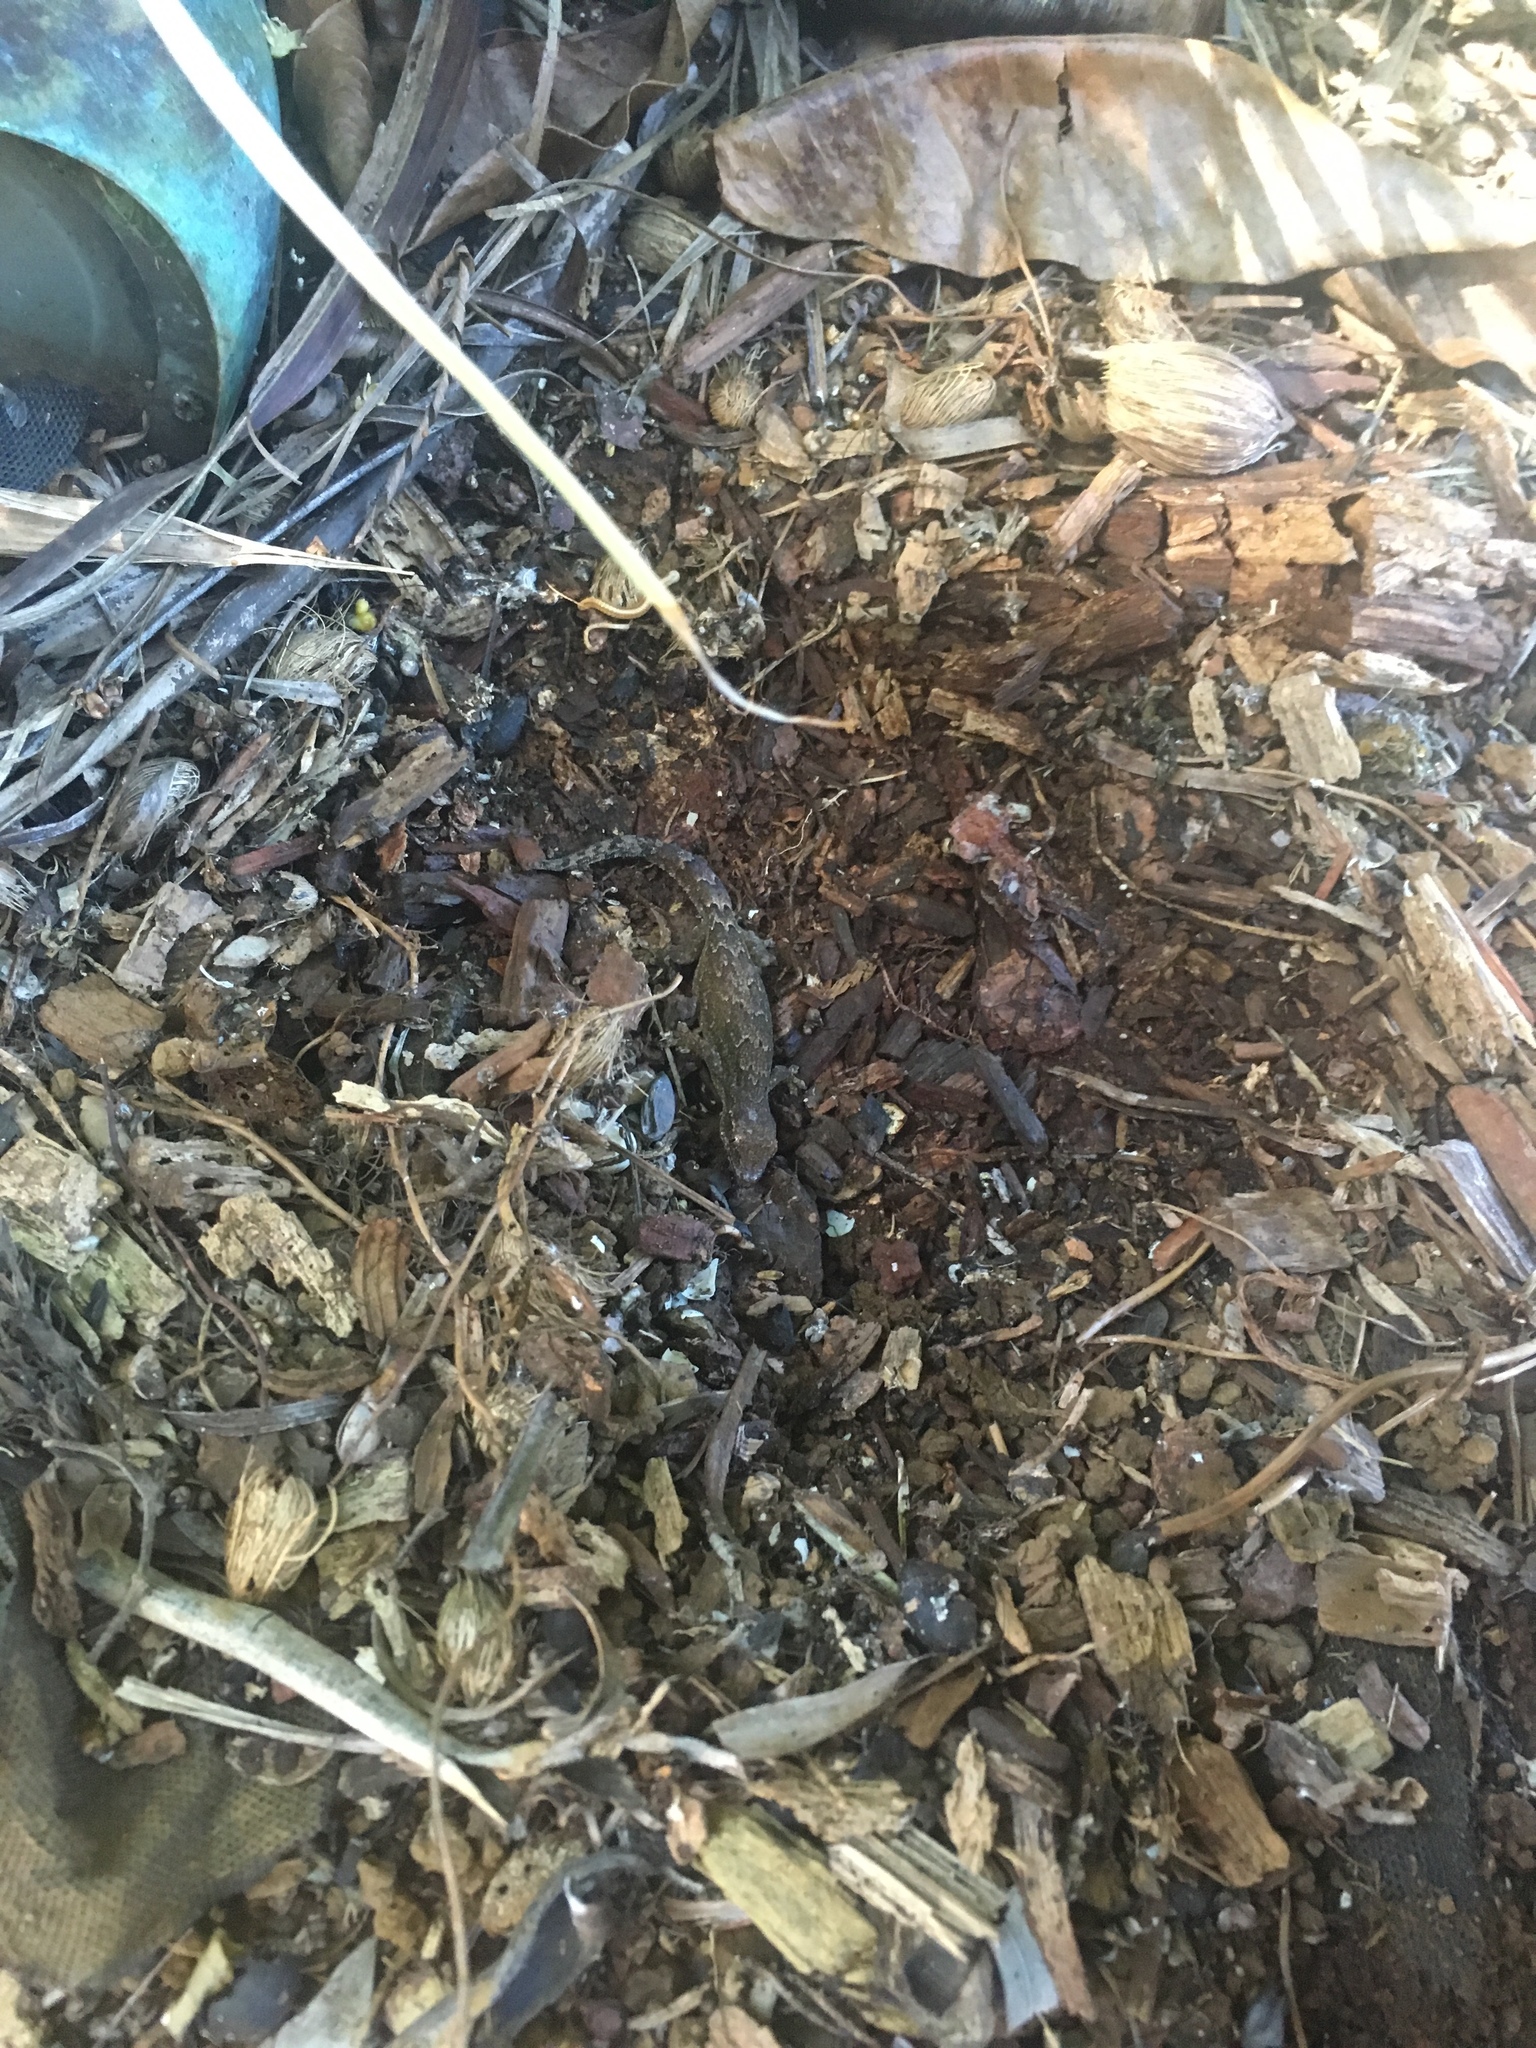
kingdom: Animalia
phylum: Chordata
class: Squamata
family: Gekkonidae
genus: Lepidodactylus
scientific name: Lepidodactylus lugubris
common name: Mourning gecko
